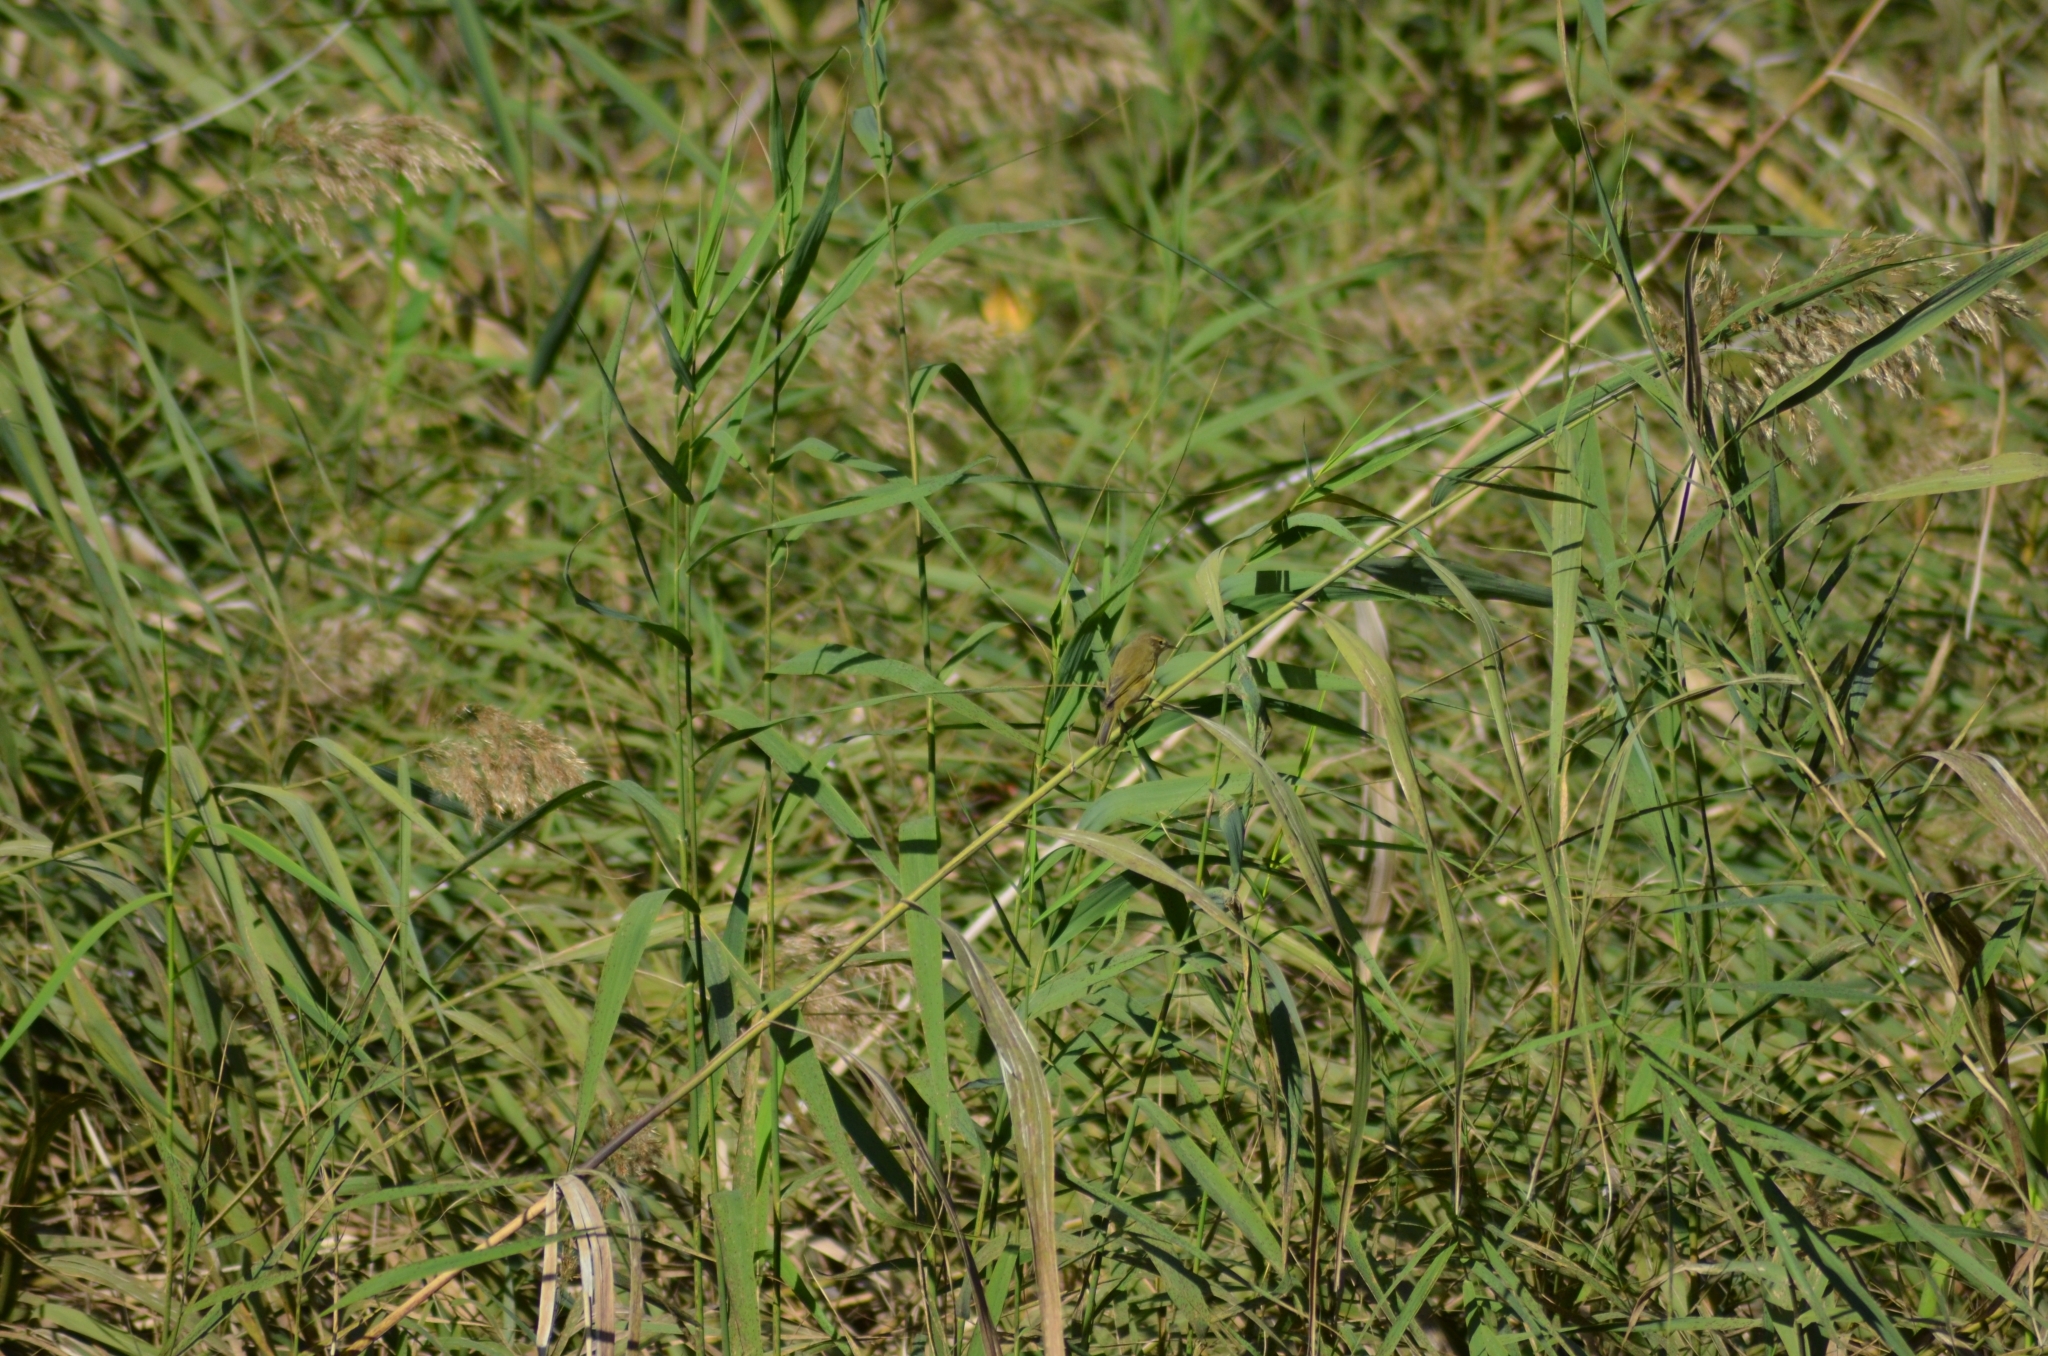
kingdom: Animalia
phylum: Chordata
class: Aves
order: Passeriformes
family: Phylloscopidae
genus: Phylloscopus
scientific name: Phylloscopus collybita
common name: Common chiffchaff
